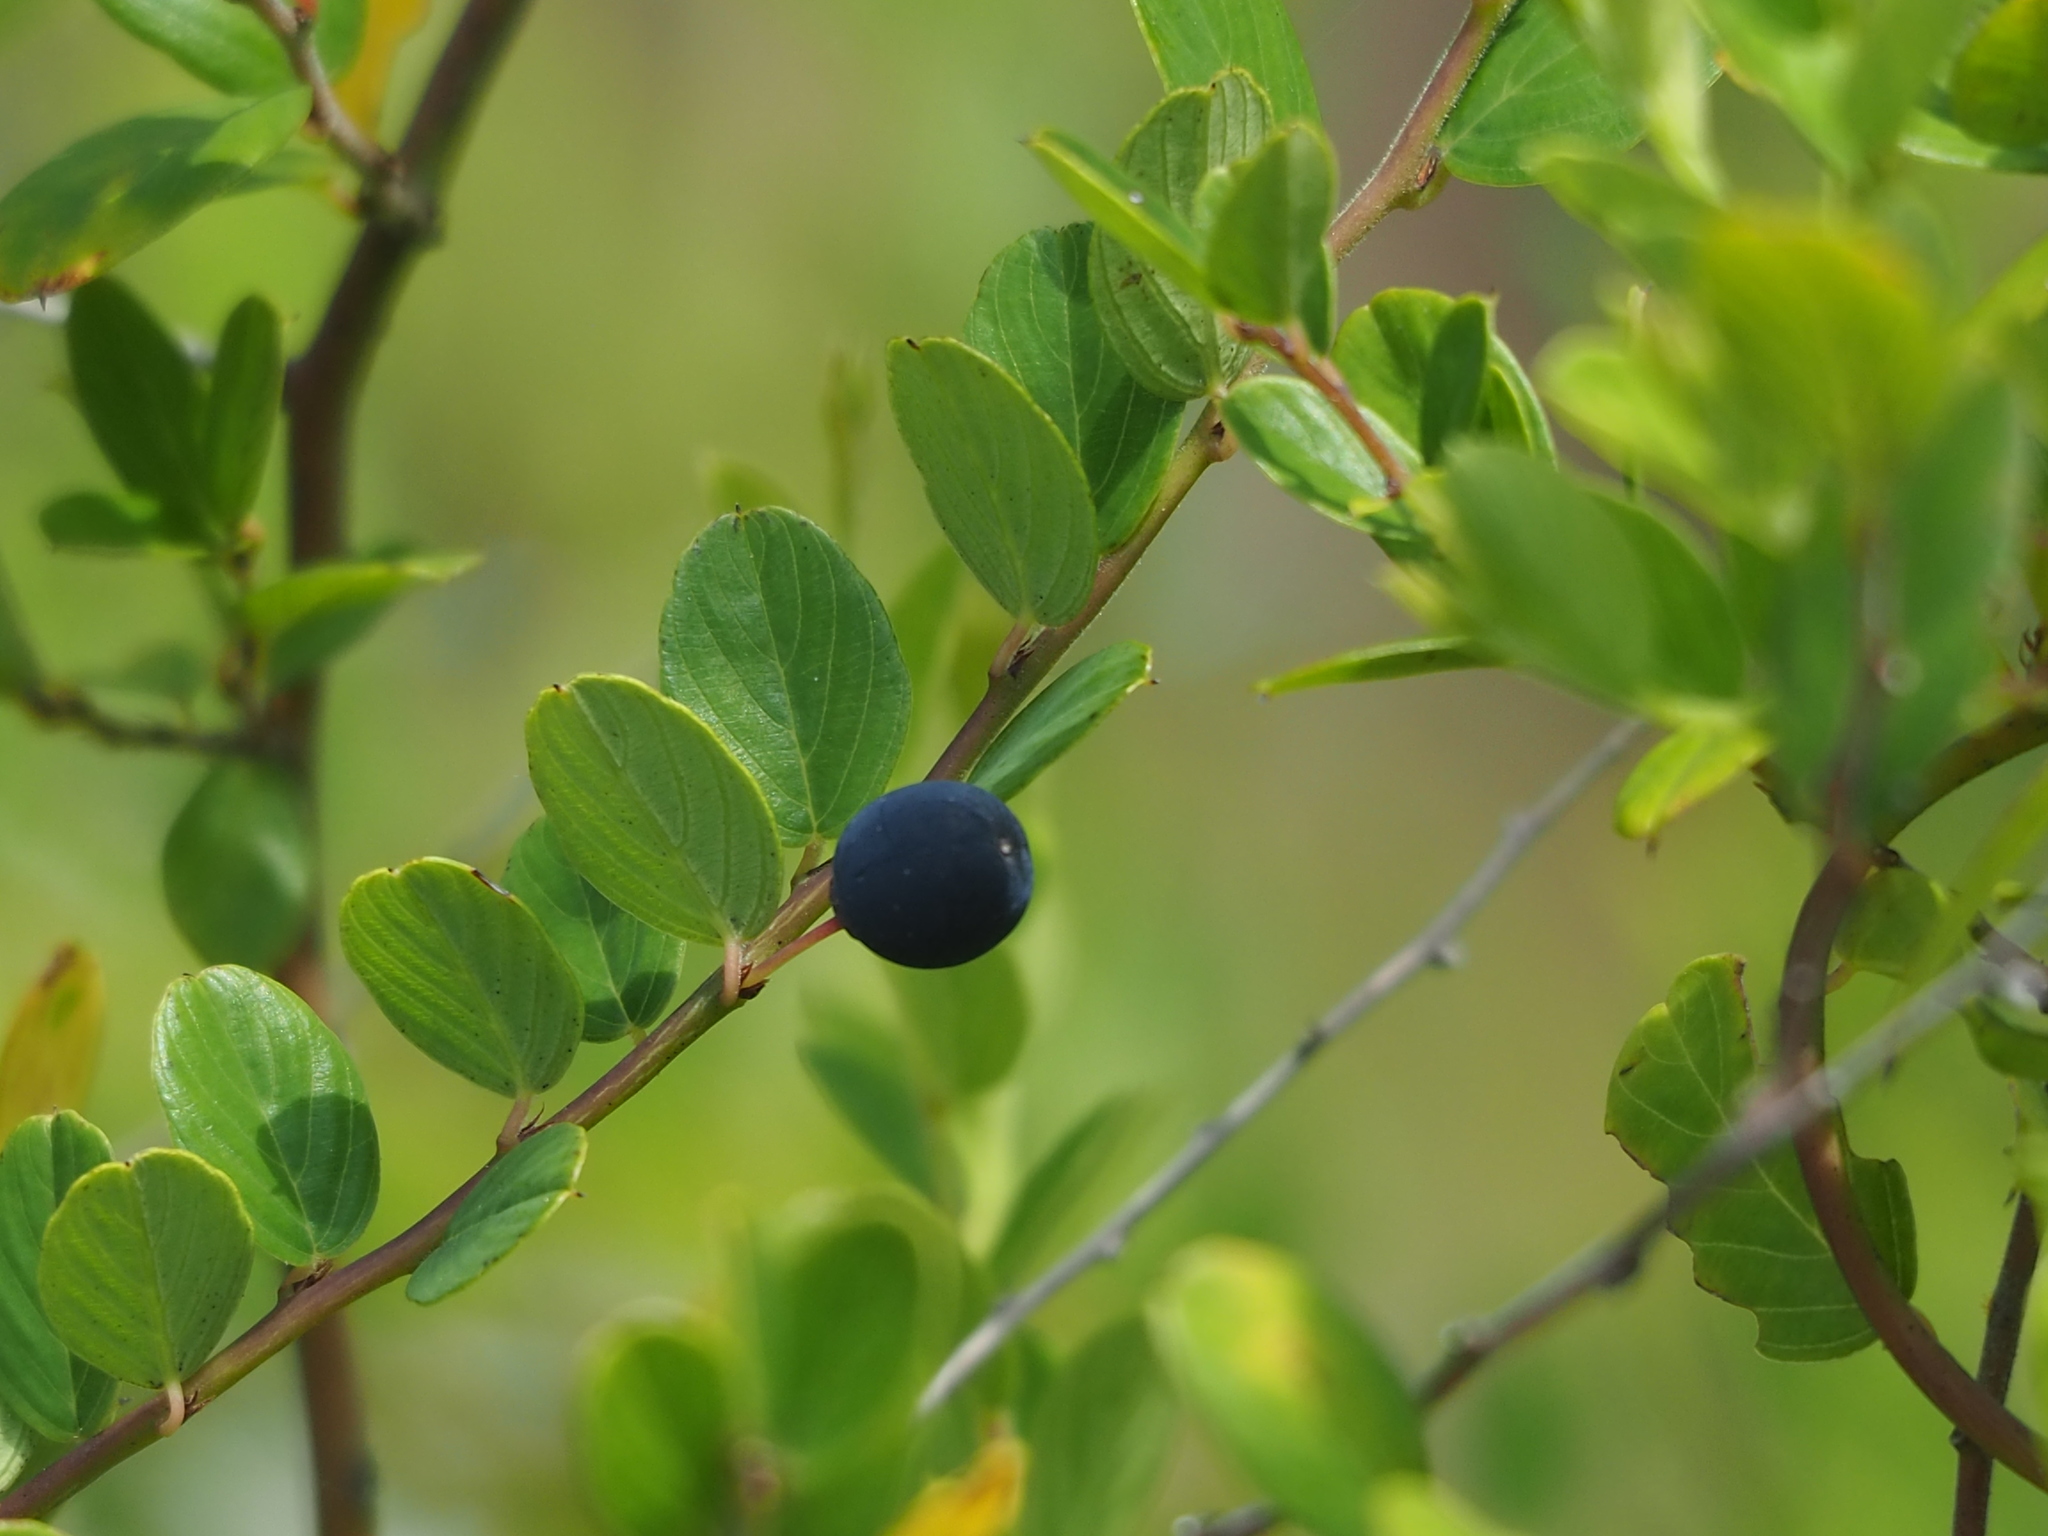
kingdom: Plantae
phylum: Tracheophyta
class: Magnoliopsida
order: Rosales
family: Rhamnaceae
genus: Berchemia
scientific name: Berchemia lineata
